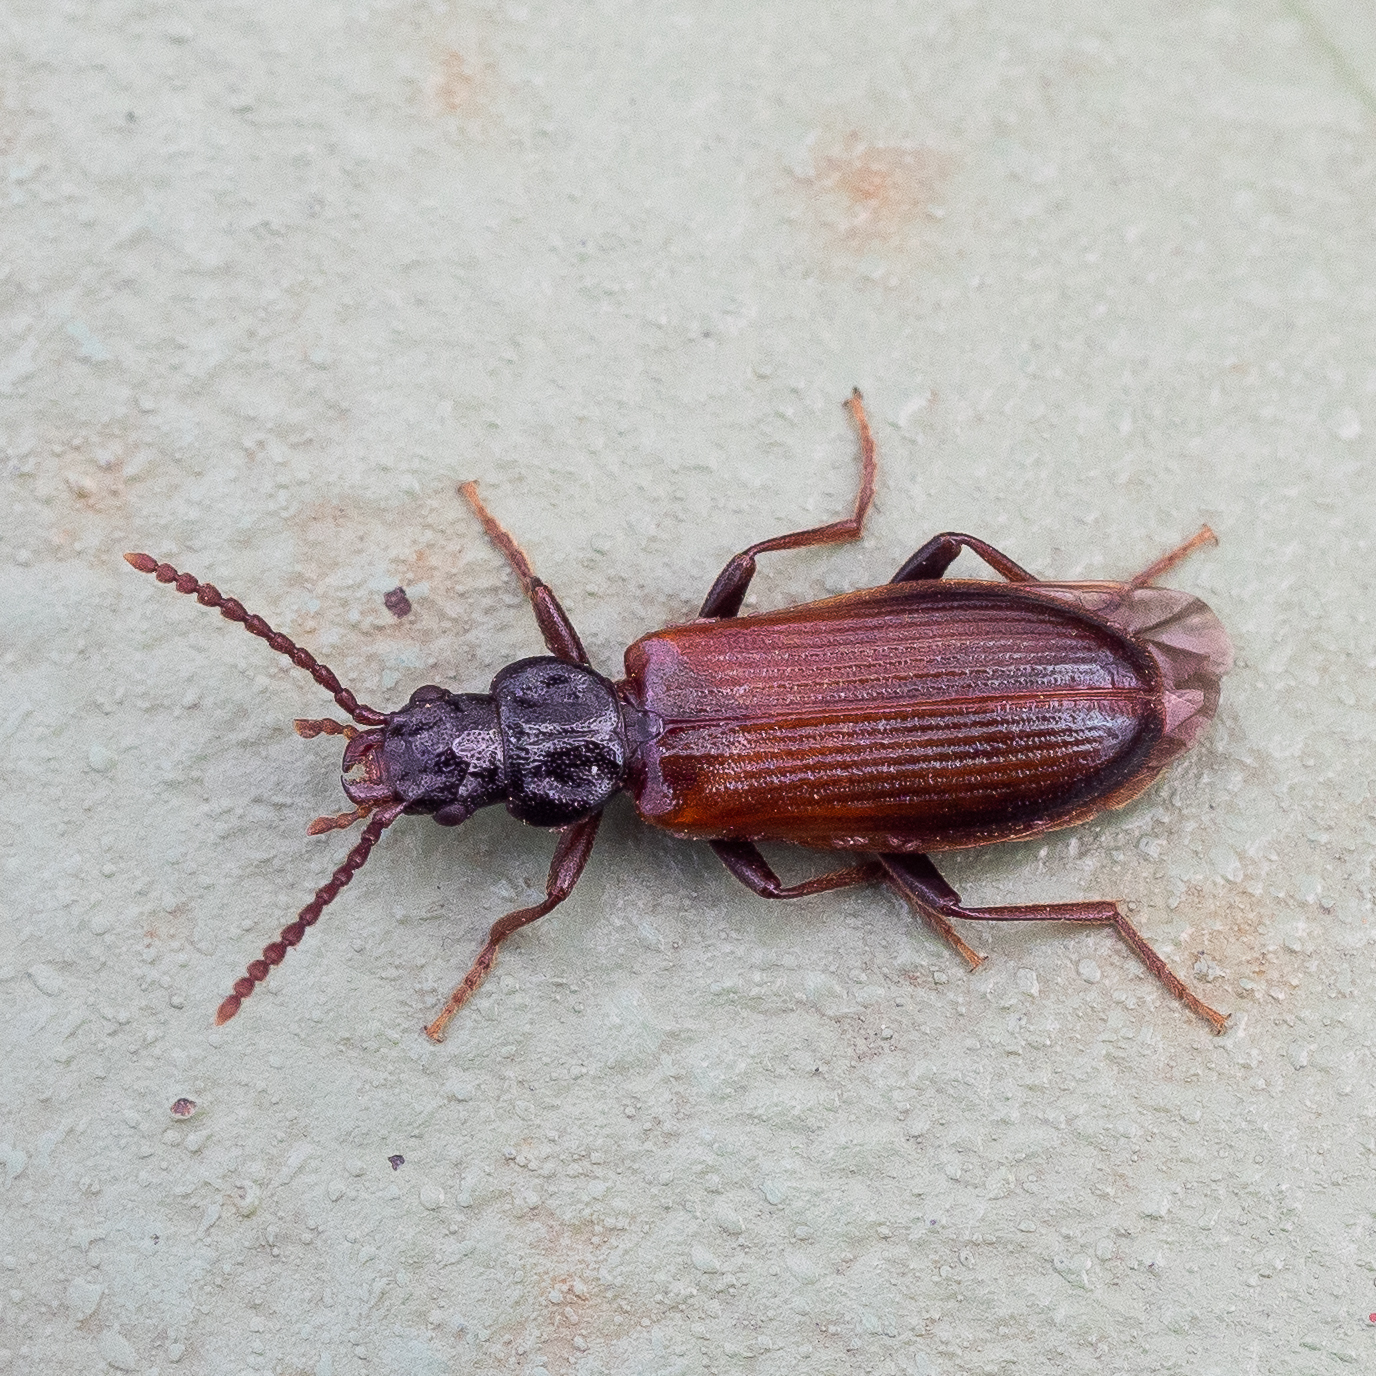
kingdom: Animalia
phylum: Arthropoda
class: Insecta
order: Coleoptera
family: Pythidae
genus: Pytho
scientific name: Pytho depressus
